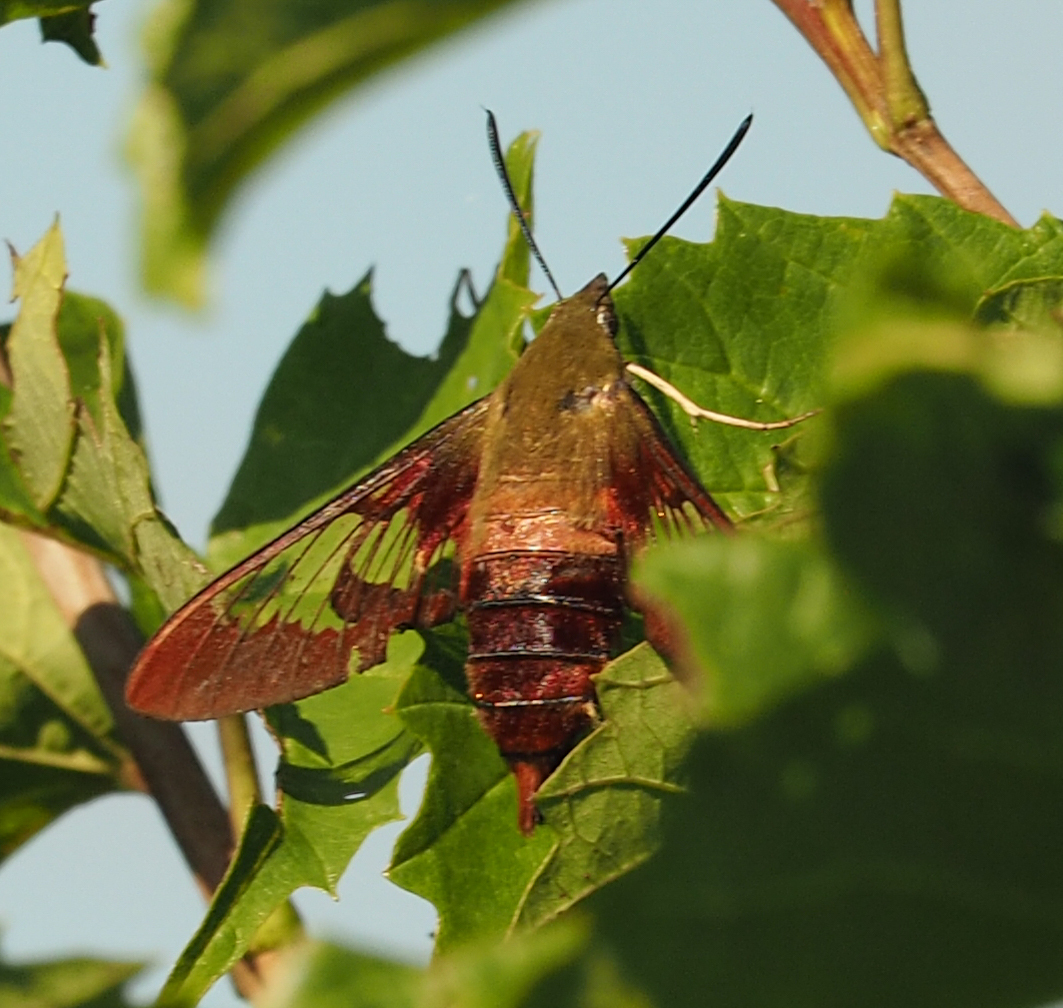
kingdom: Animalia
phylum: Arthropoda
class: Insecta
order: Lepidoptera
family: Sphingidae
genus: Hemaris
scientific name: Hemaris thysbe
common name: Common clear-wing
